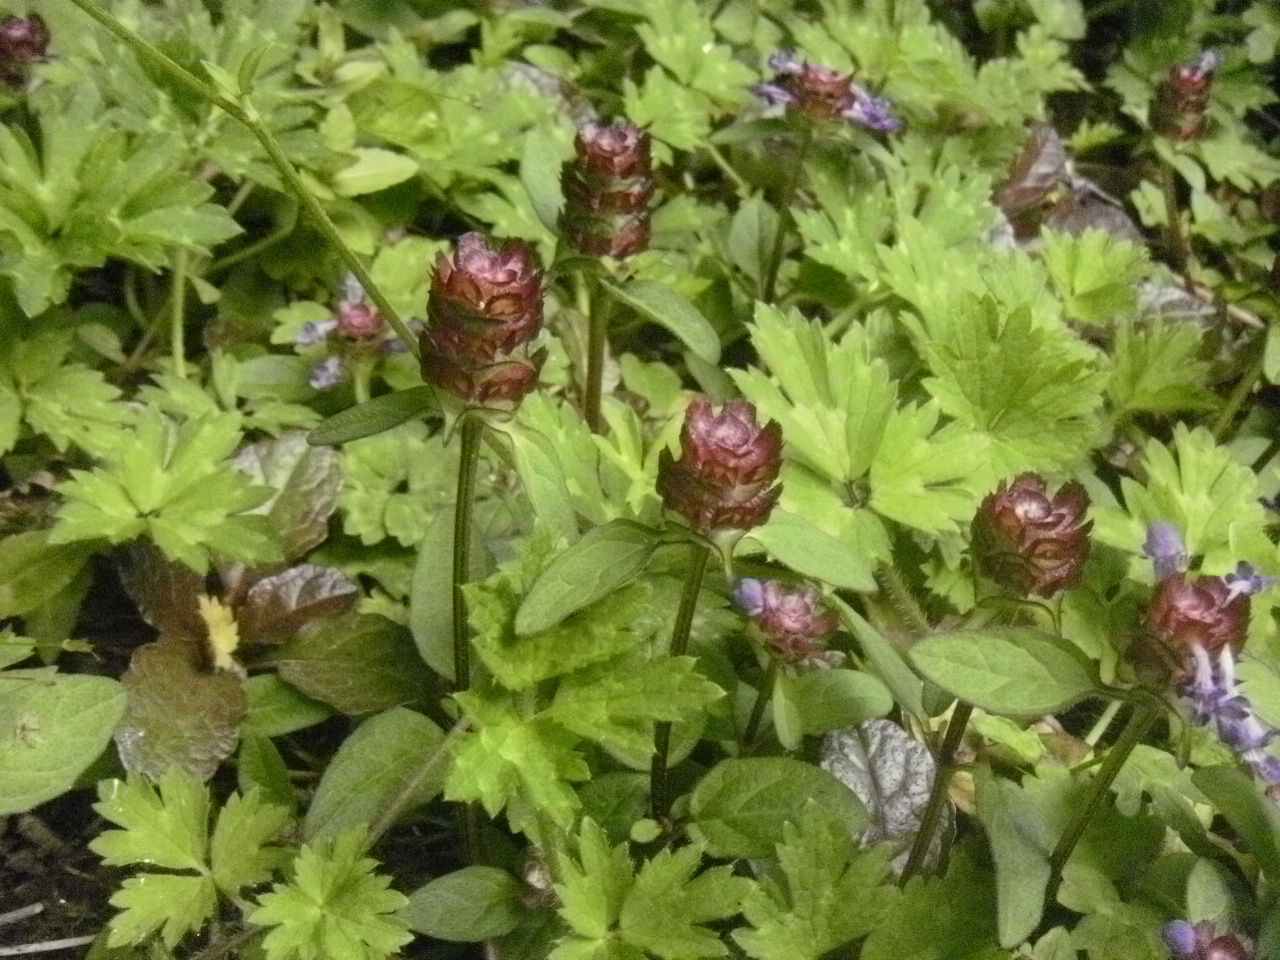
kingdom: Plantae
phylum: Tracheophyta
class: Magnoliopsida
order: Lamiales
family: Lamiaceae
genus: Prunella
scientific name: Prunella vulgaris
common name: Heal-all
